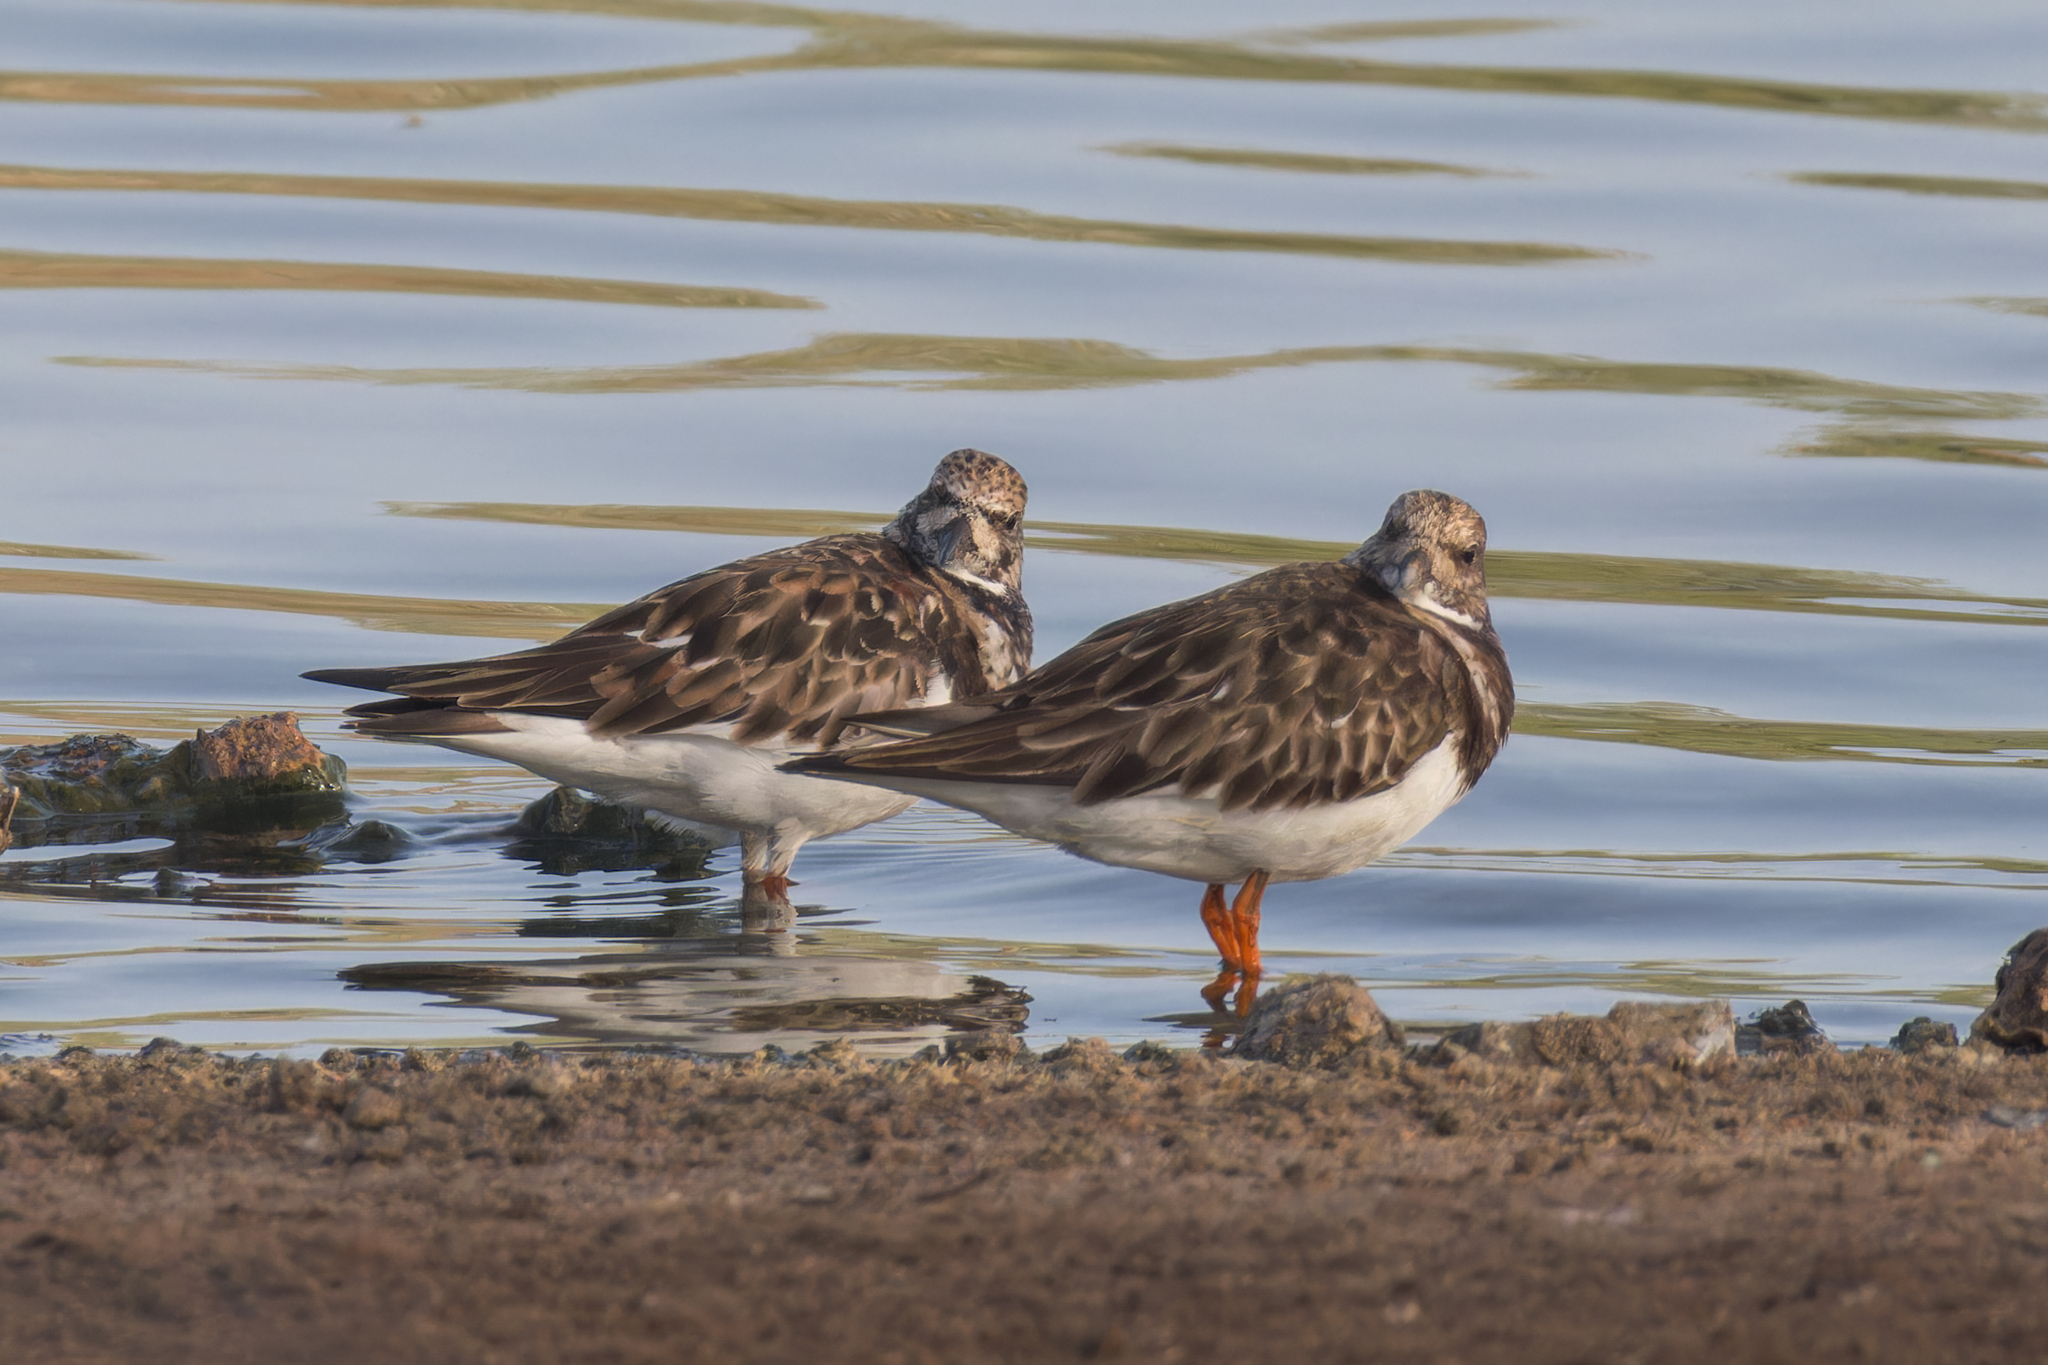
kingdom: Animalia
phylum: Chordata
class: Aves
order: Charadriiformes
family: Scolopacidae
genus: Arenaria
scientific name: Arenaria interpres
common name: Ruddy turnstone
